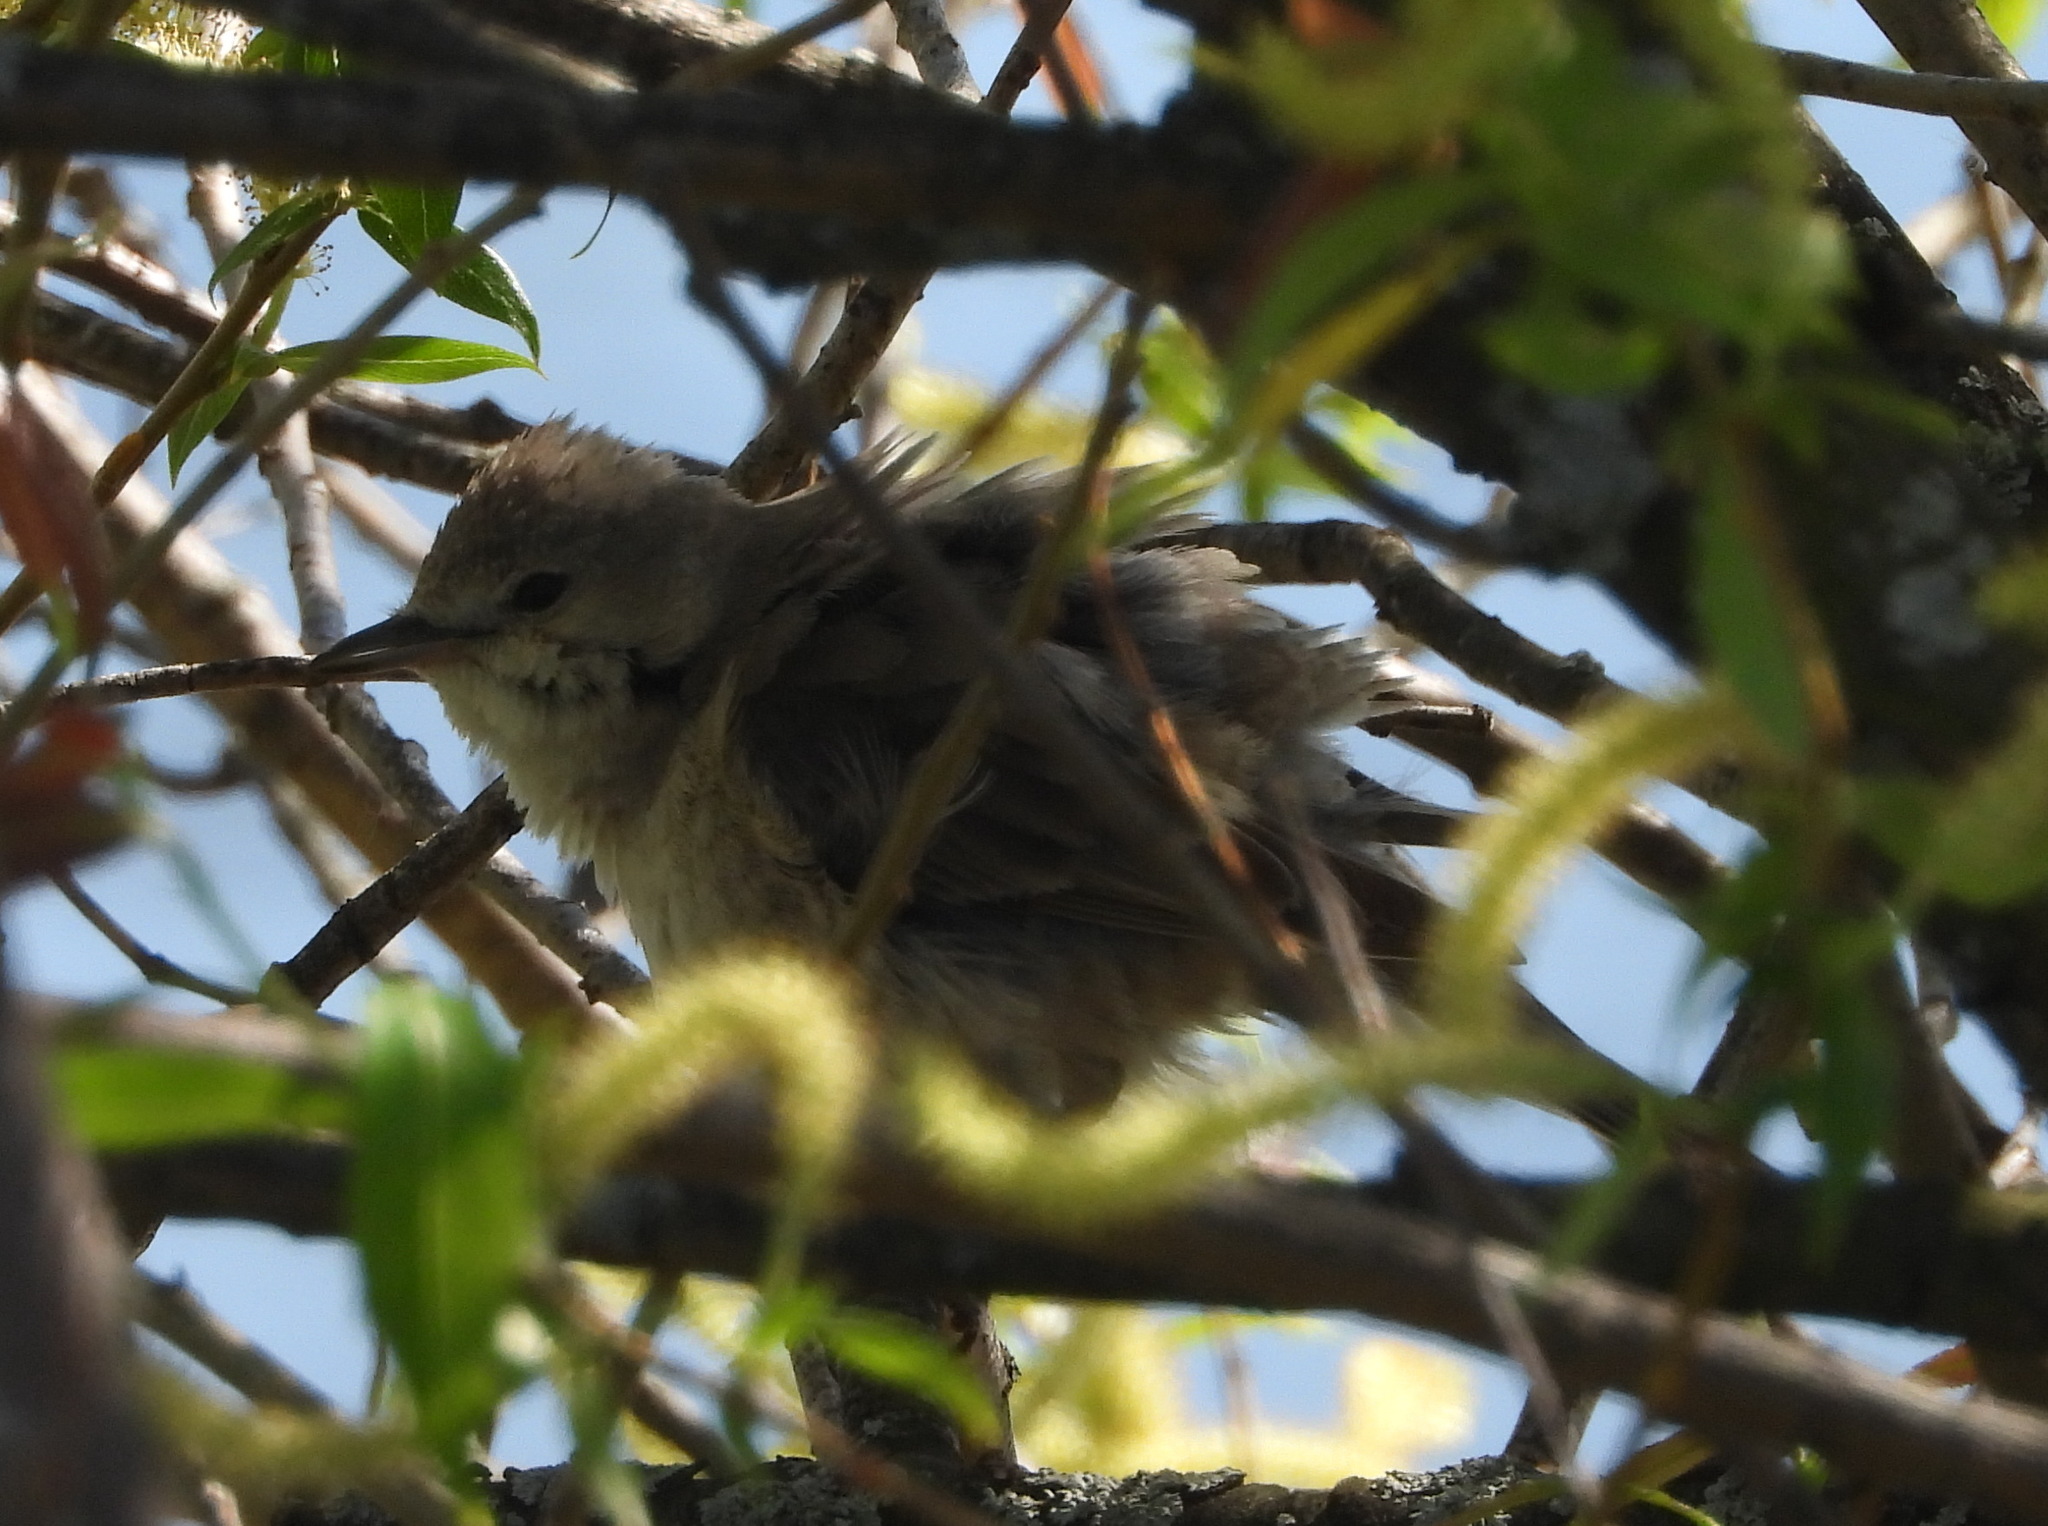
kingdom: Animalia
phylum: Chordata
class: Aves
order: Passeriformes
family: Sylviidae
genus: Sylvia
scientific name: Sylvia borin
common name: Garden warbler
